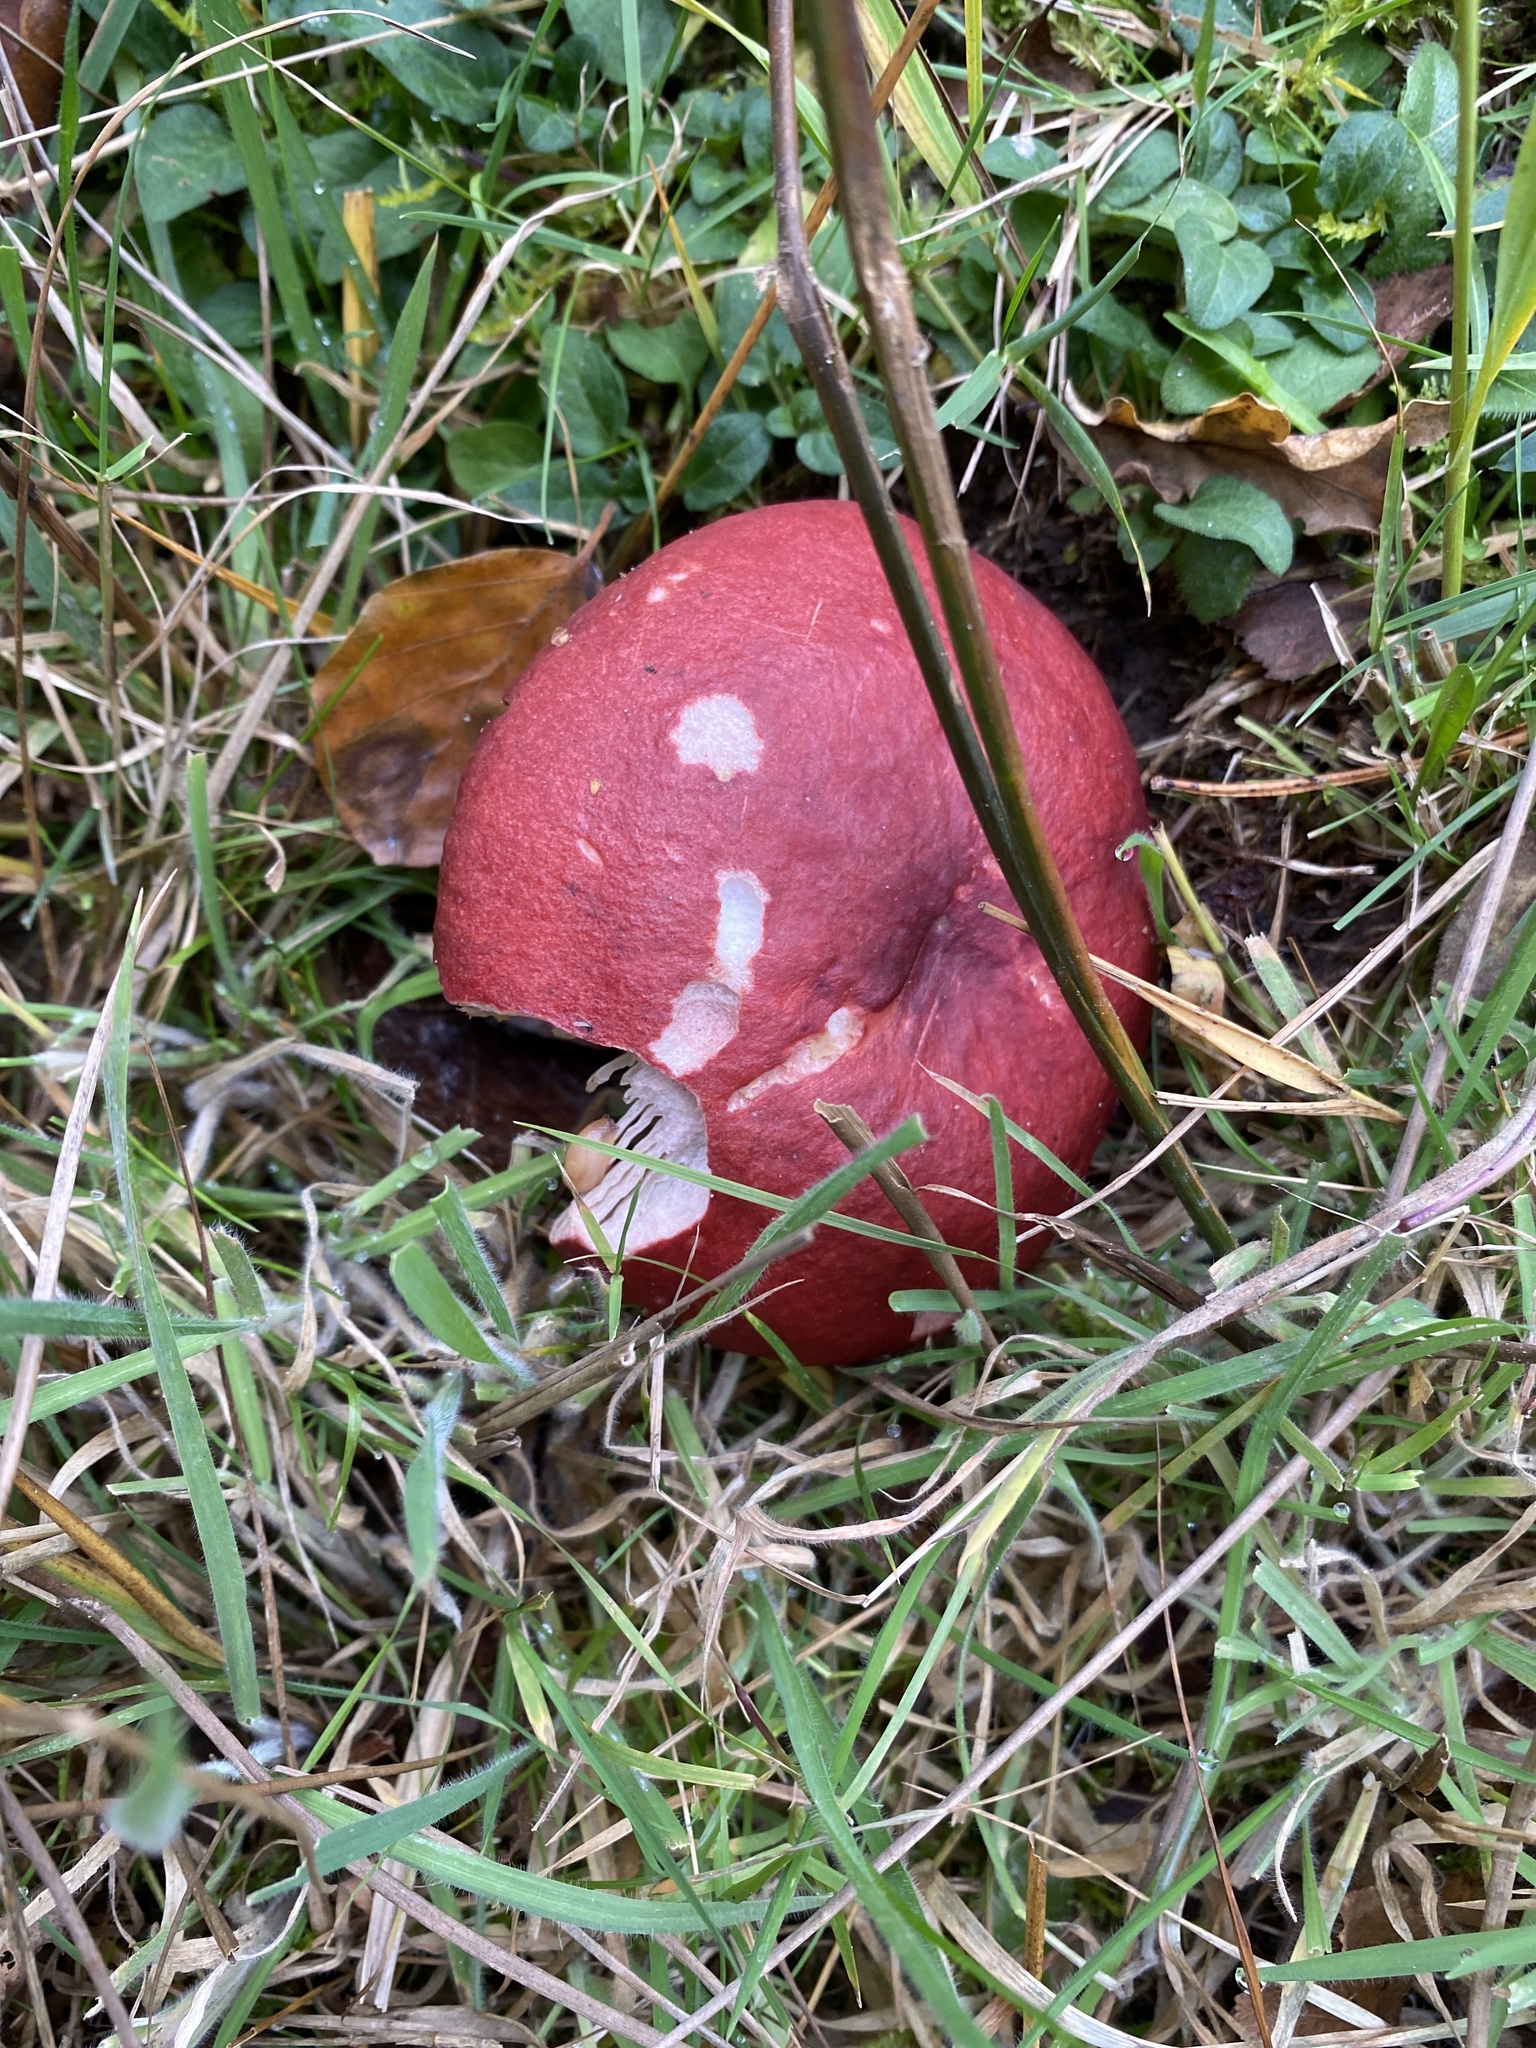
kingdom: Fungi
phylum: Basidiomycota
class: Agaricomycetes
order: Russulales
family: Russulaceae
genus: Russula
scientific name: Russula sanguinea
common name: Bloody brittlegill
